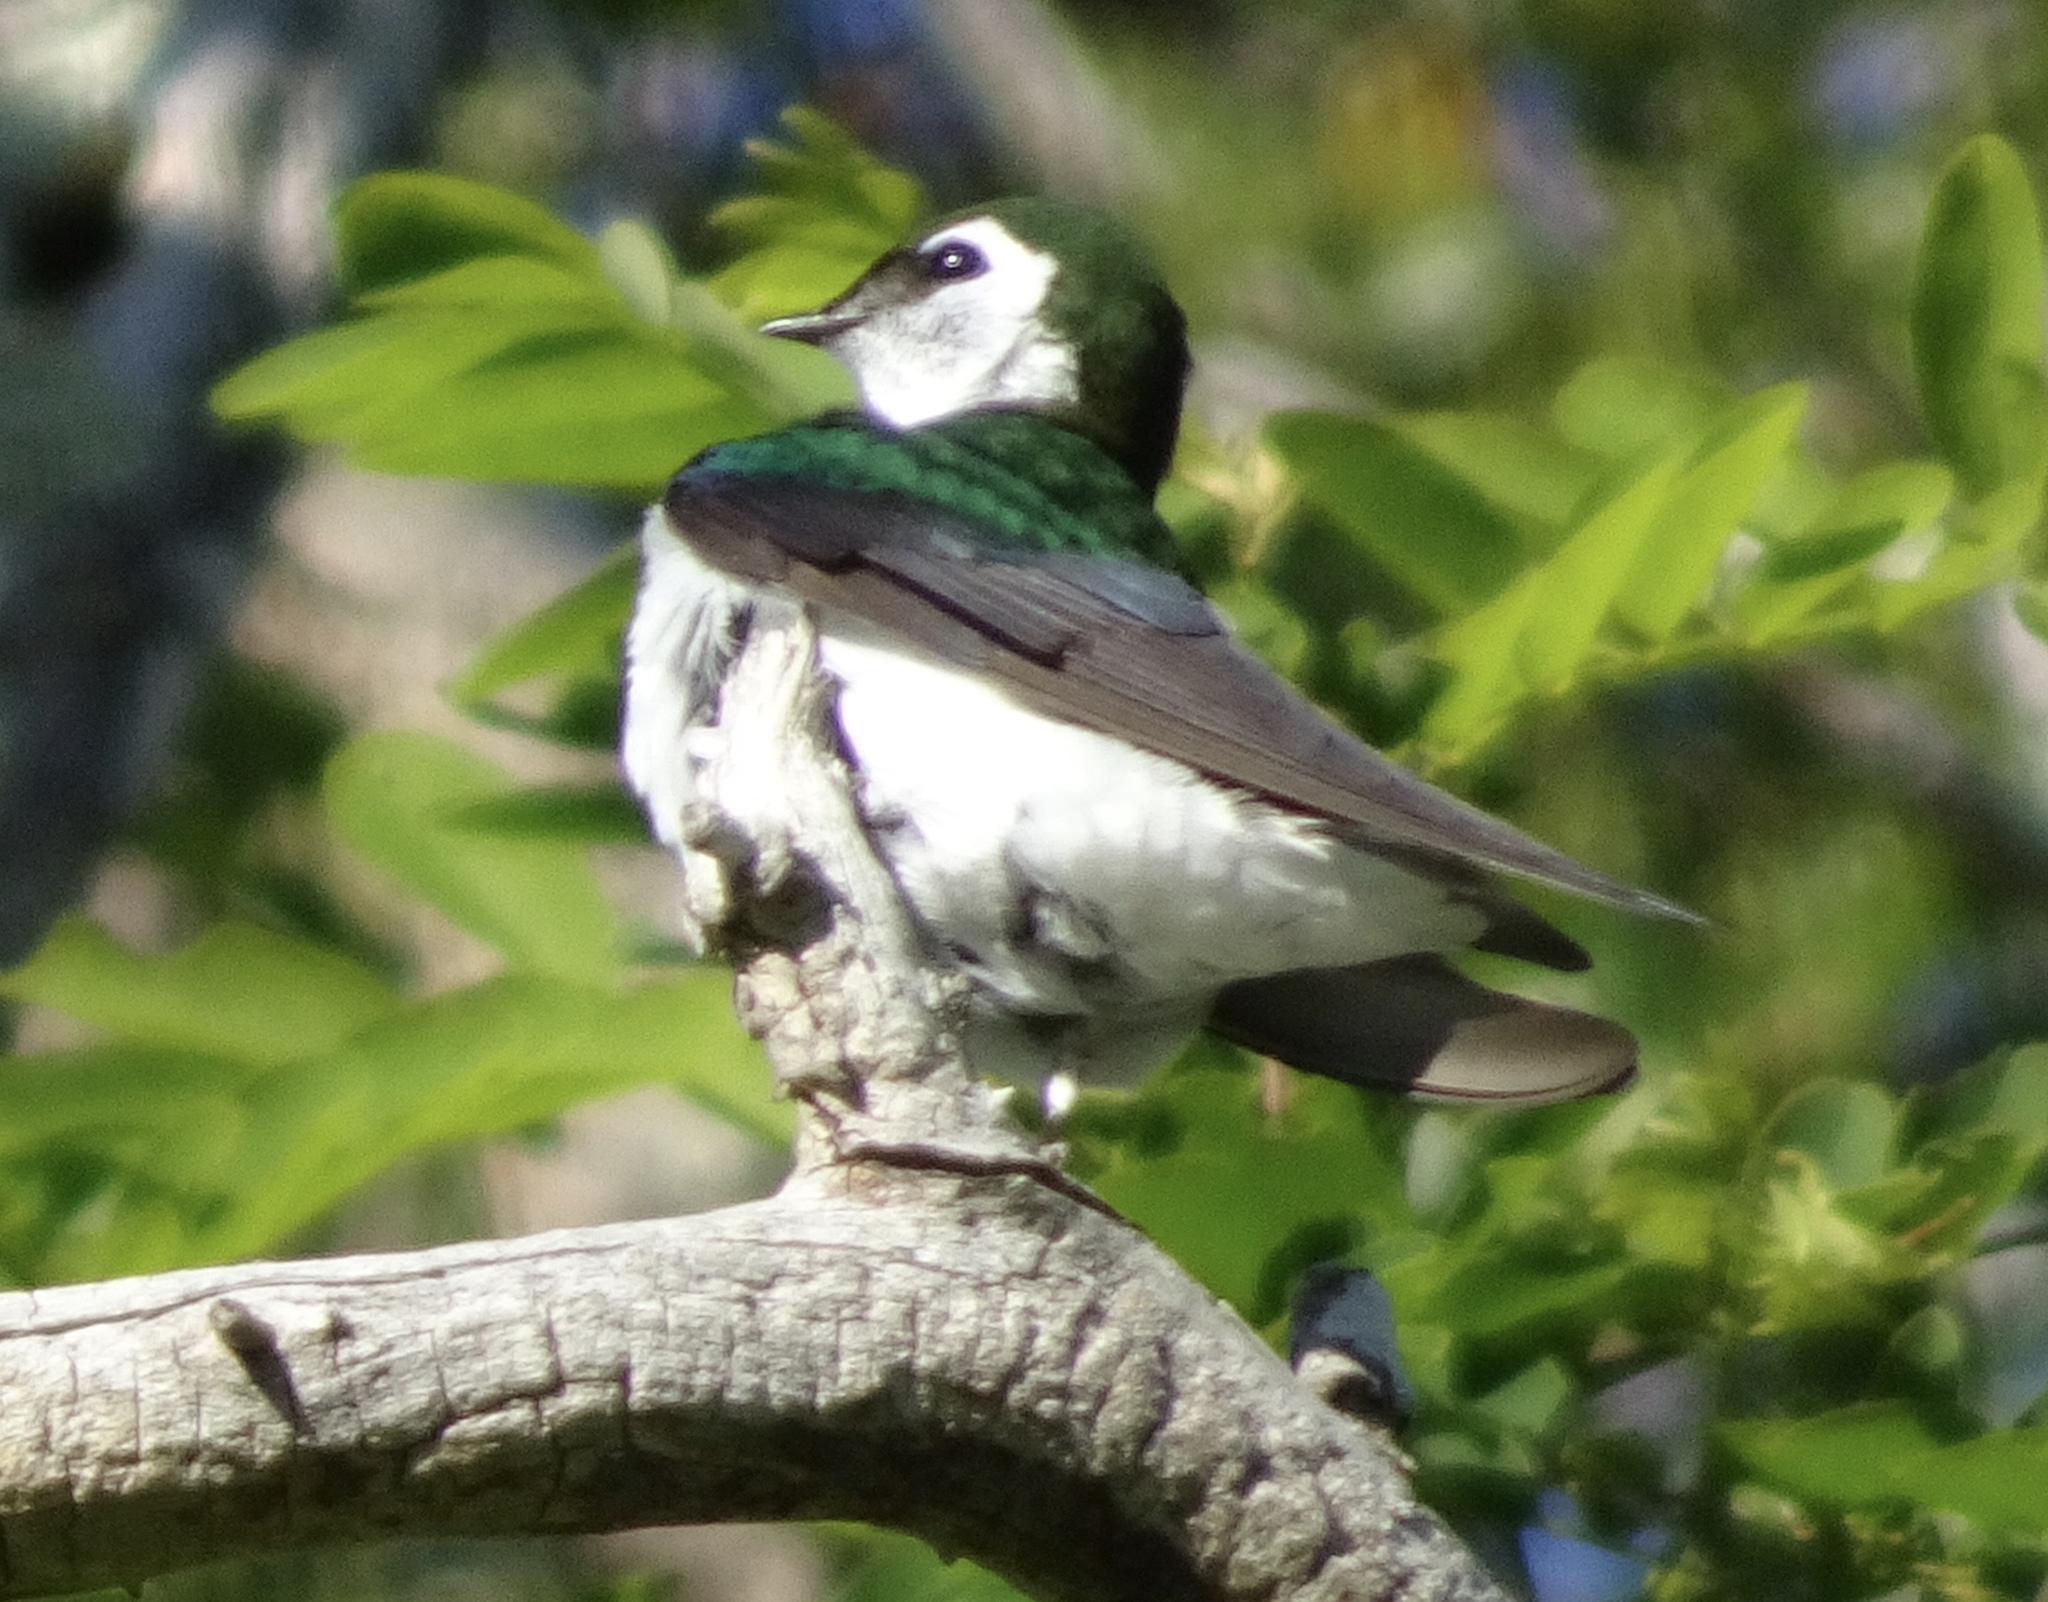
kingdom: Animalia
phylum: Chordata
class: Aves
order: Passeriformes
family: Hirundinidae
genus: Tachycineta
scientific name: Tachycineta thalassina
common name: Violet-green swallow
